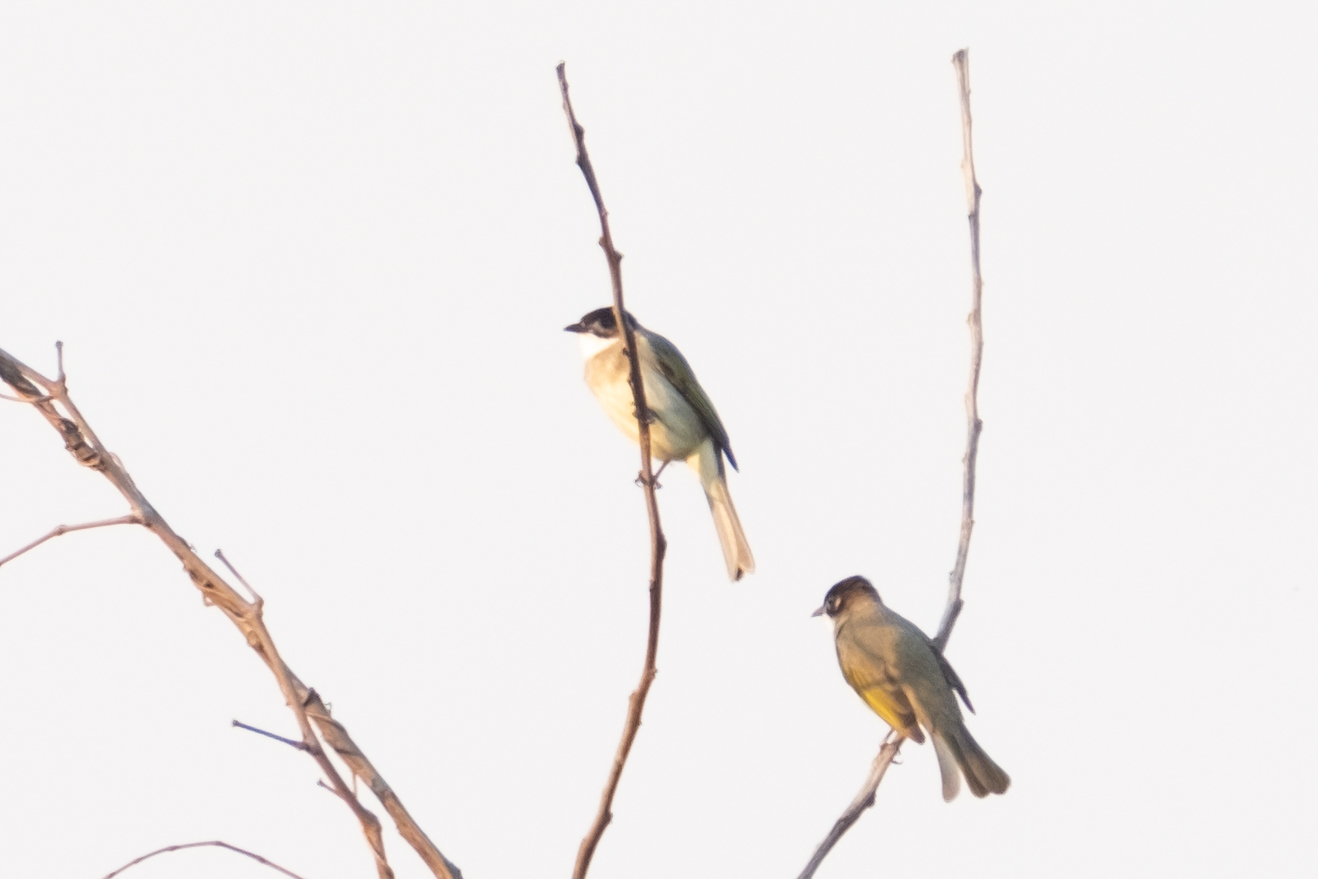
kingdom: Animalia
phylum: Chordata
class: Aves
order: Passeriformes
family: Pycnonotidae
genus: Pycnonotus
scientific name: Pycnonotus sinensis
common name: Light-vented bulbul
